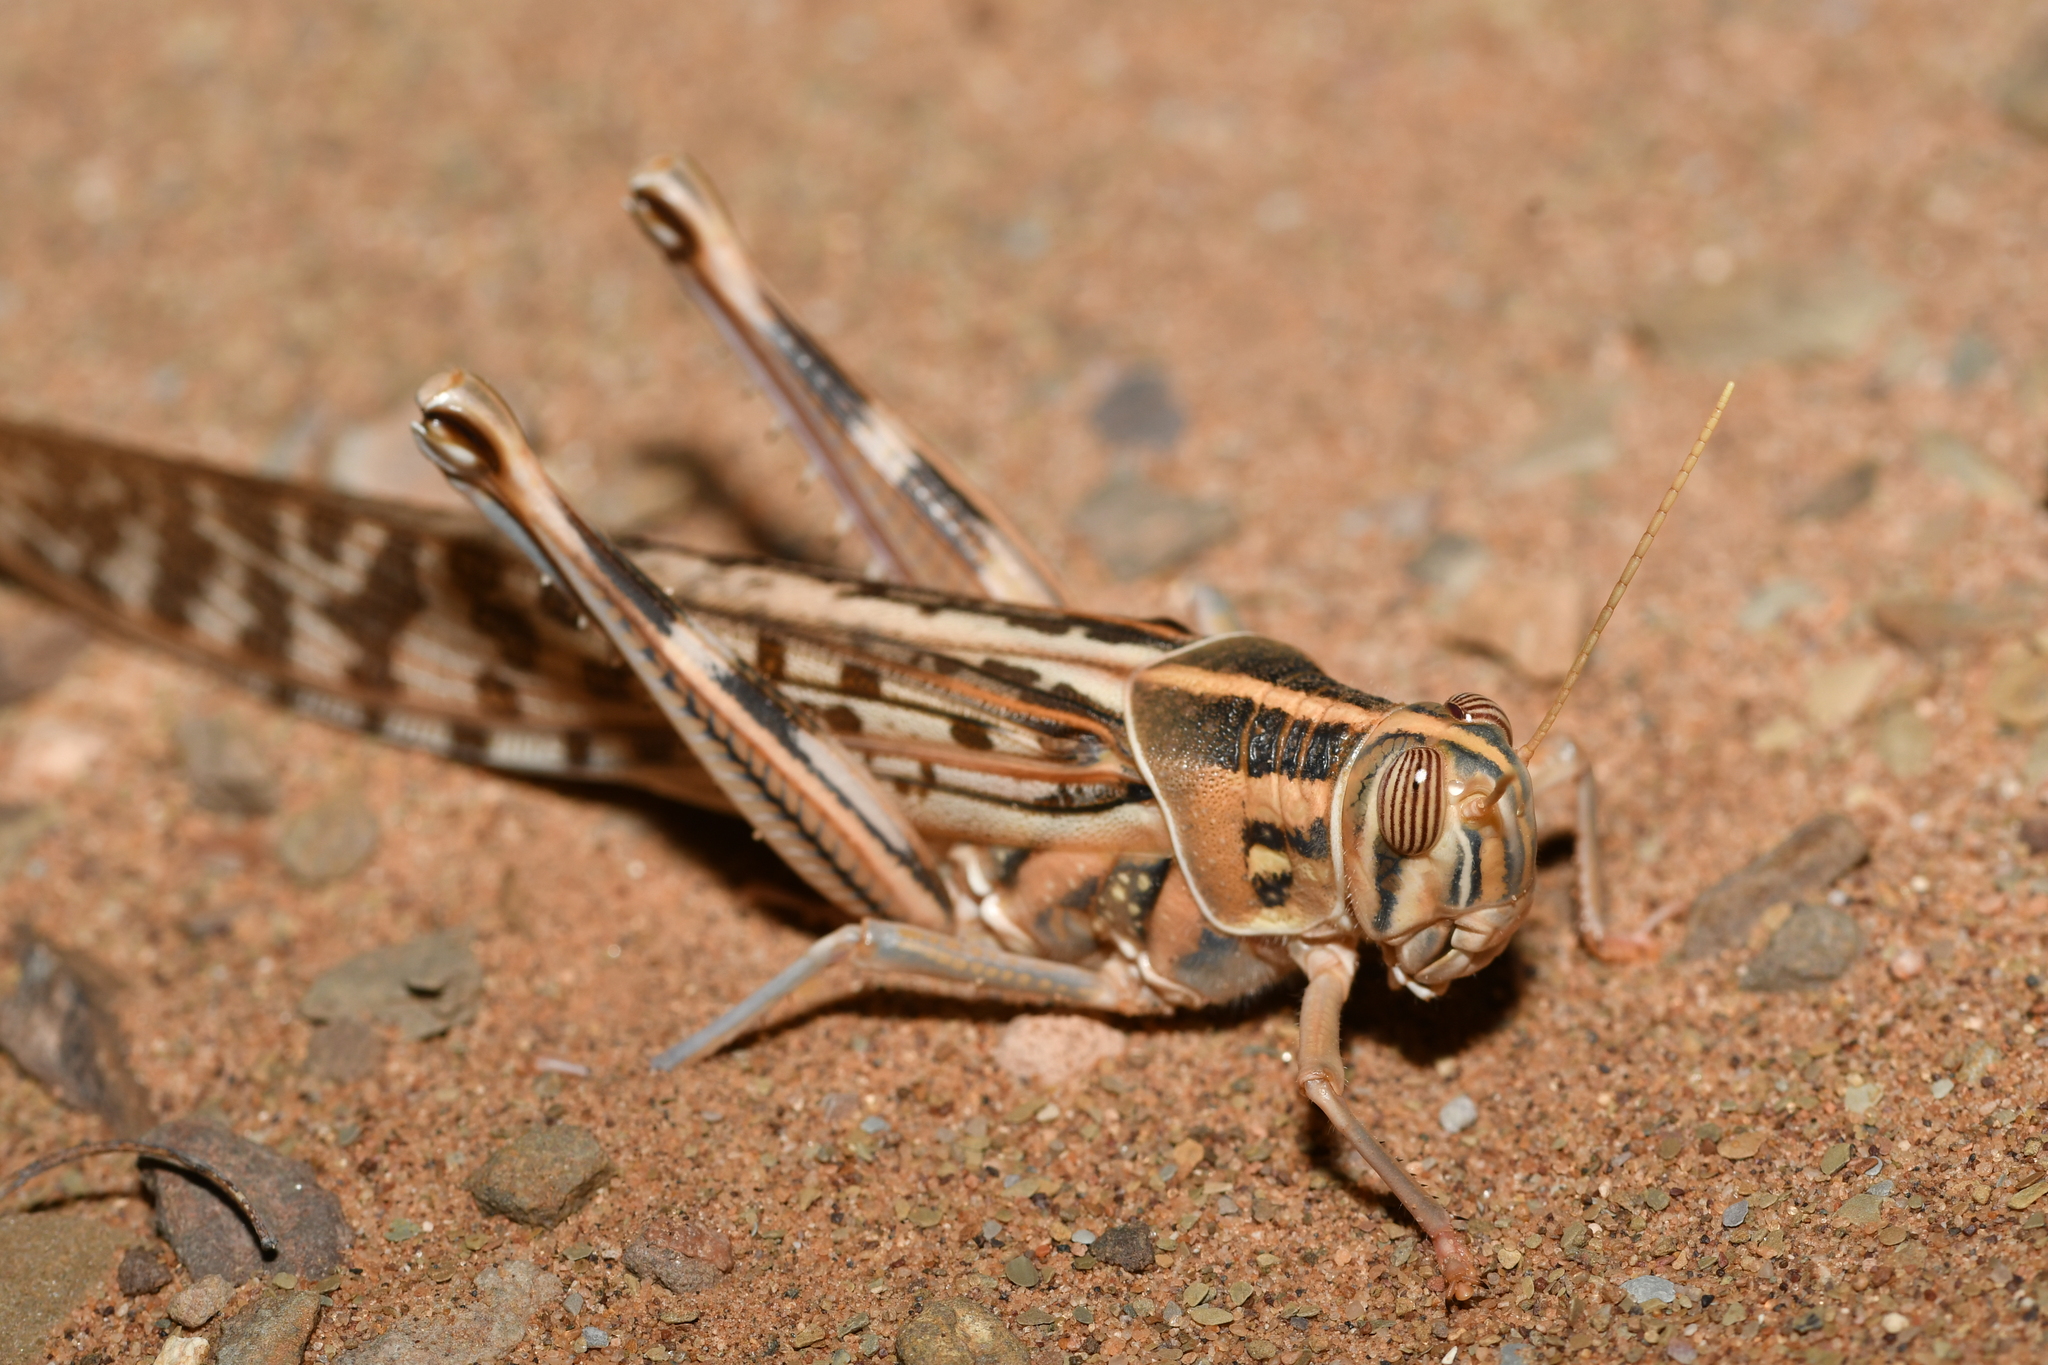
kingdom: Animalia
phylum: Arthropoda
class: Insecta
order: Orthoptera
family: Acrididae
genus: Schistocerca
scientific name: Schistocerca gregaria
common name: Desert locust
